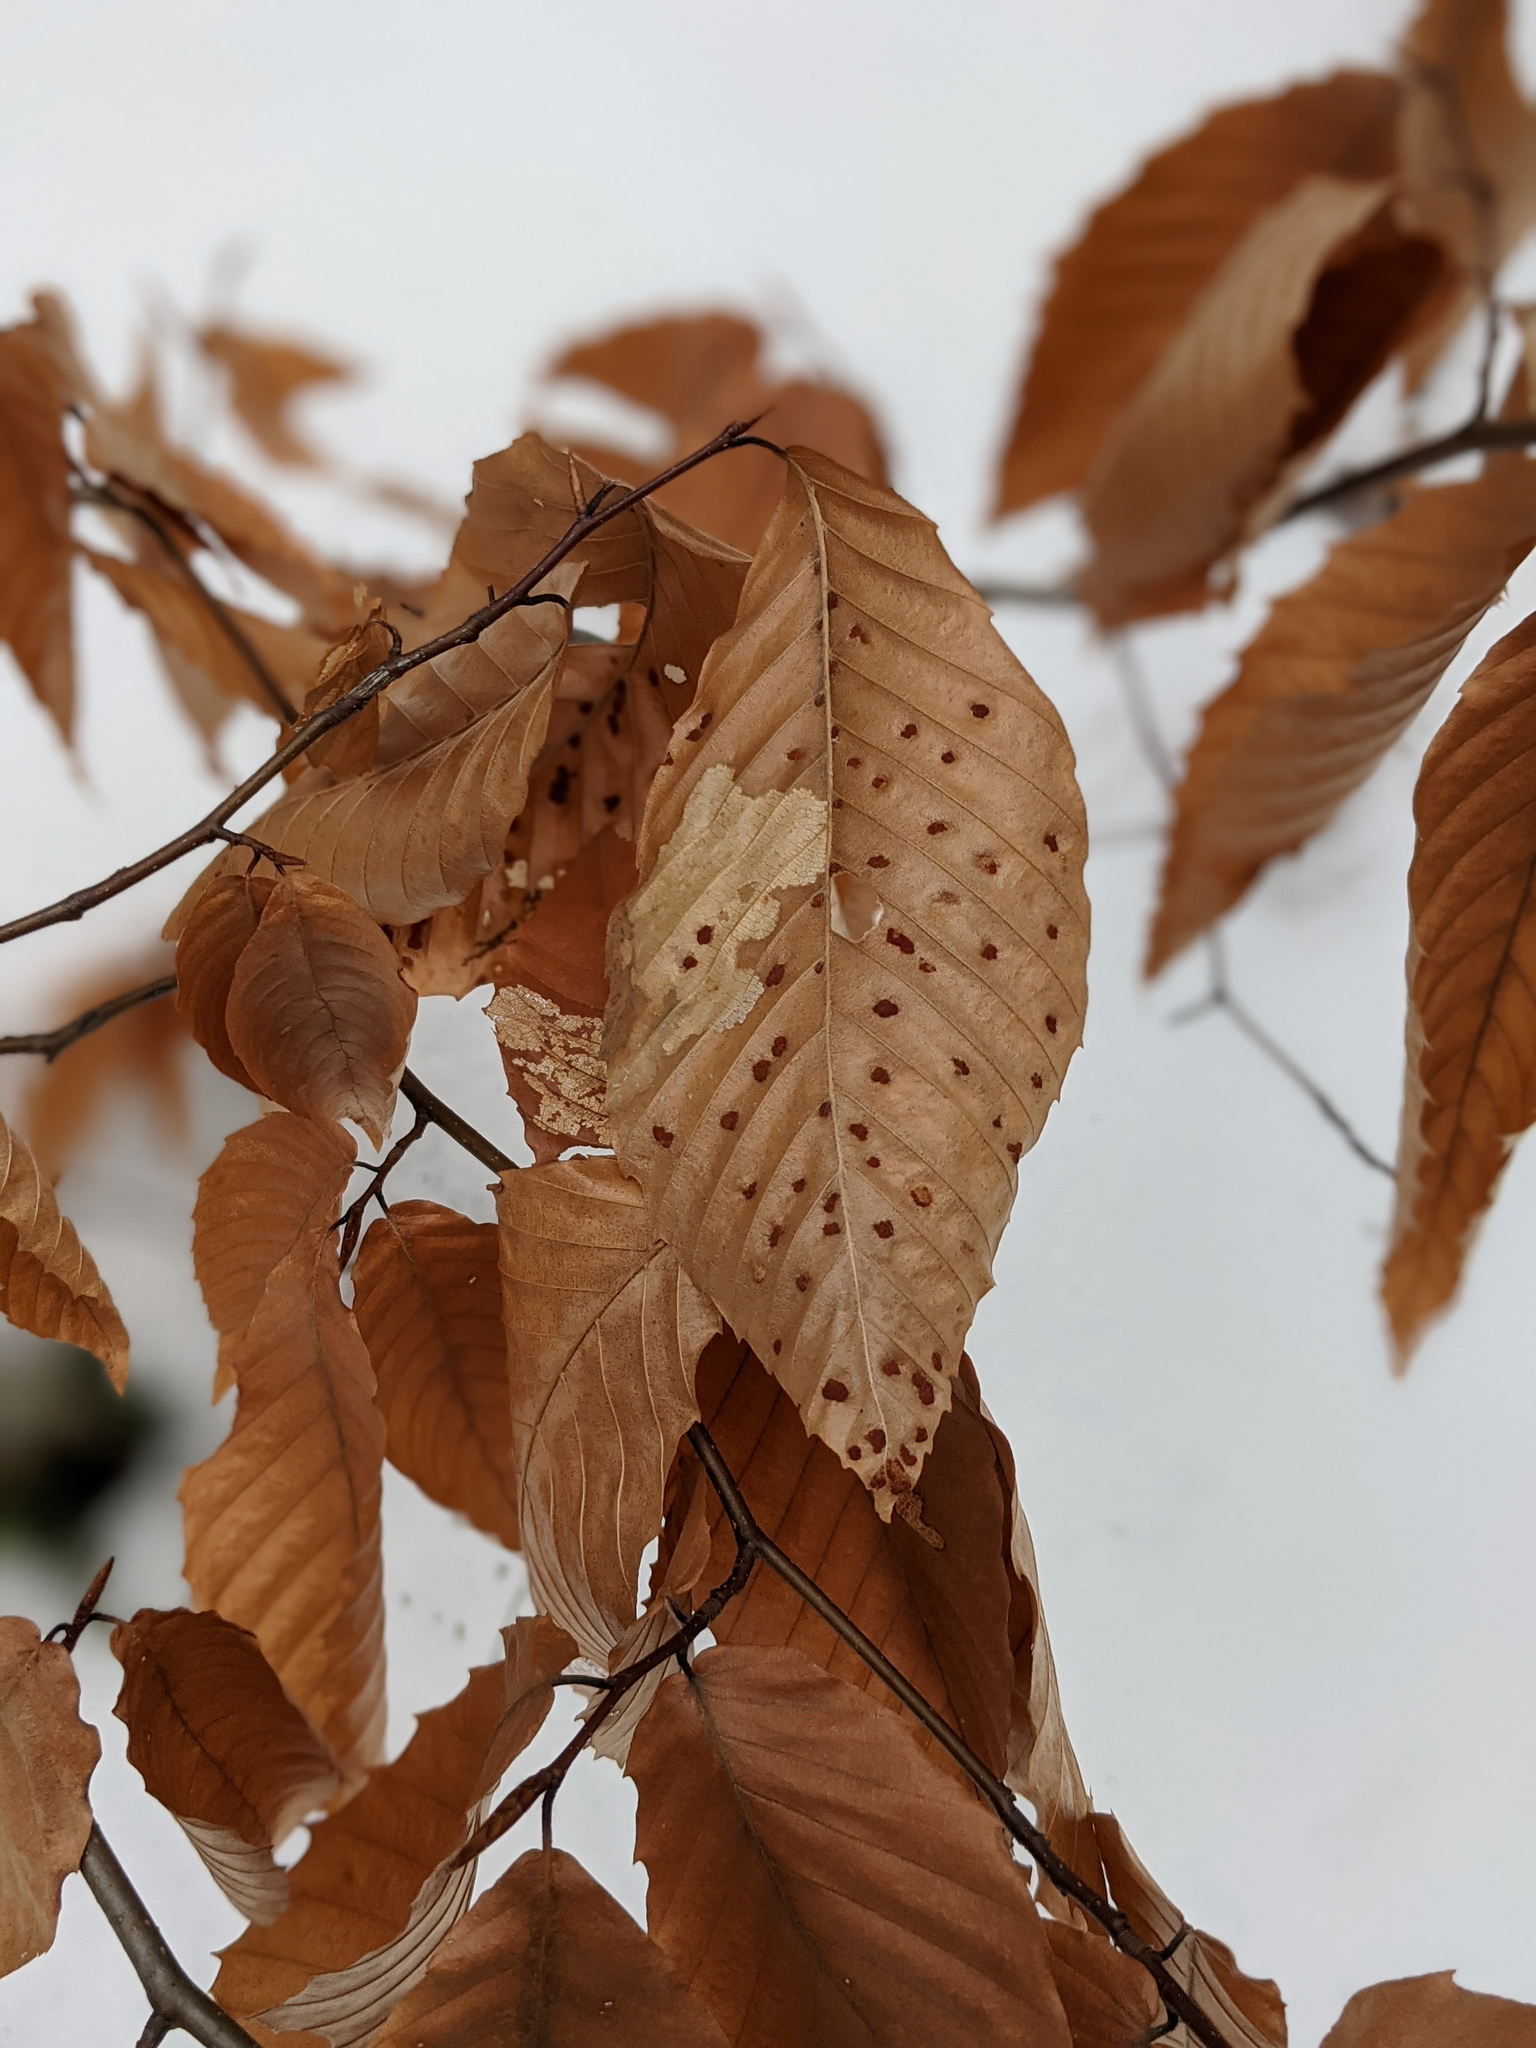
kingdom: Animalia
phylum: Arthropoda
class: Arachnida
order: Trombidiformes
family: Eriophyidae
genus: Acalitus
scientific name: Acalitus
